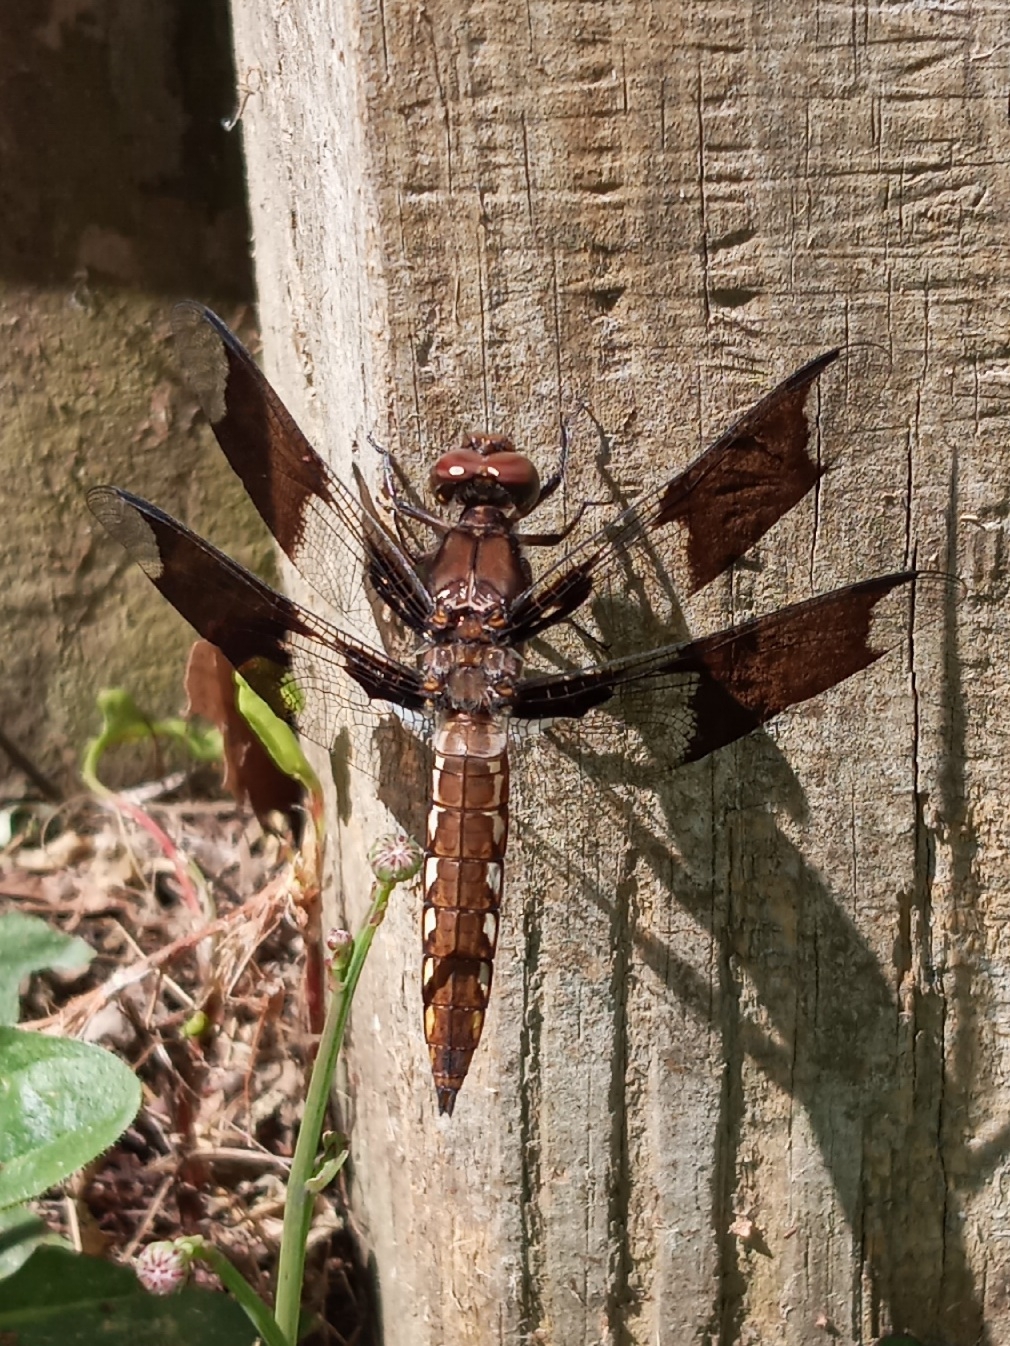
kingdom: Animalia
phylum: Arthropoda
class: Insecta
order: Odonata
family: Libellulidae
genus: Plathemis
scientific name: Plathemis lydia
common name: Common whitetail
